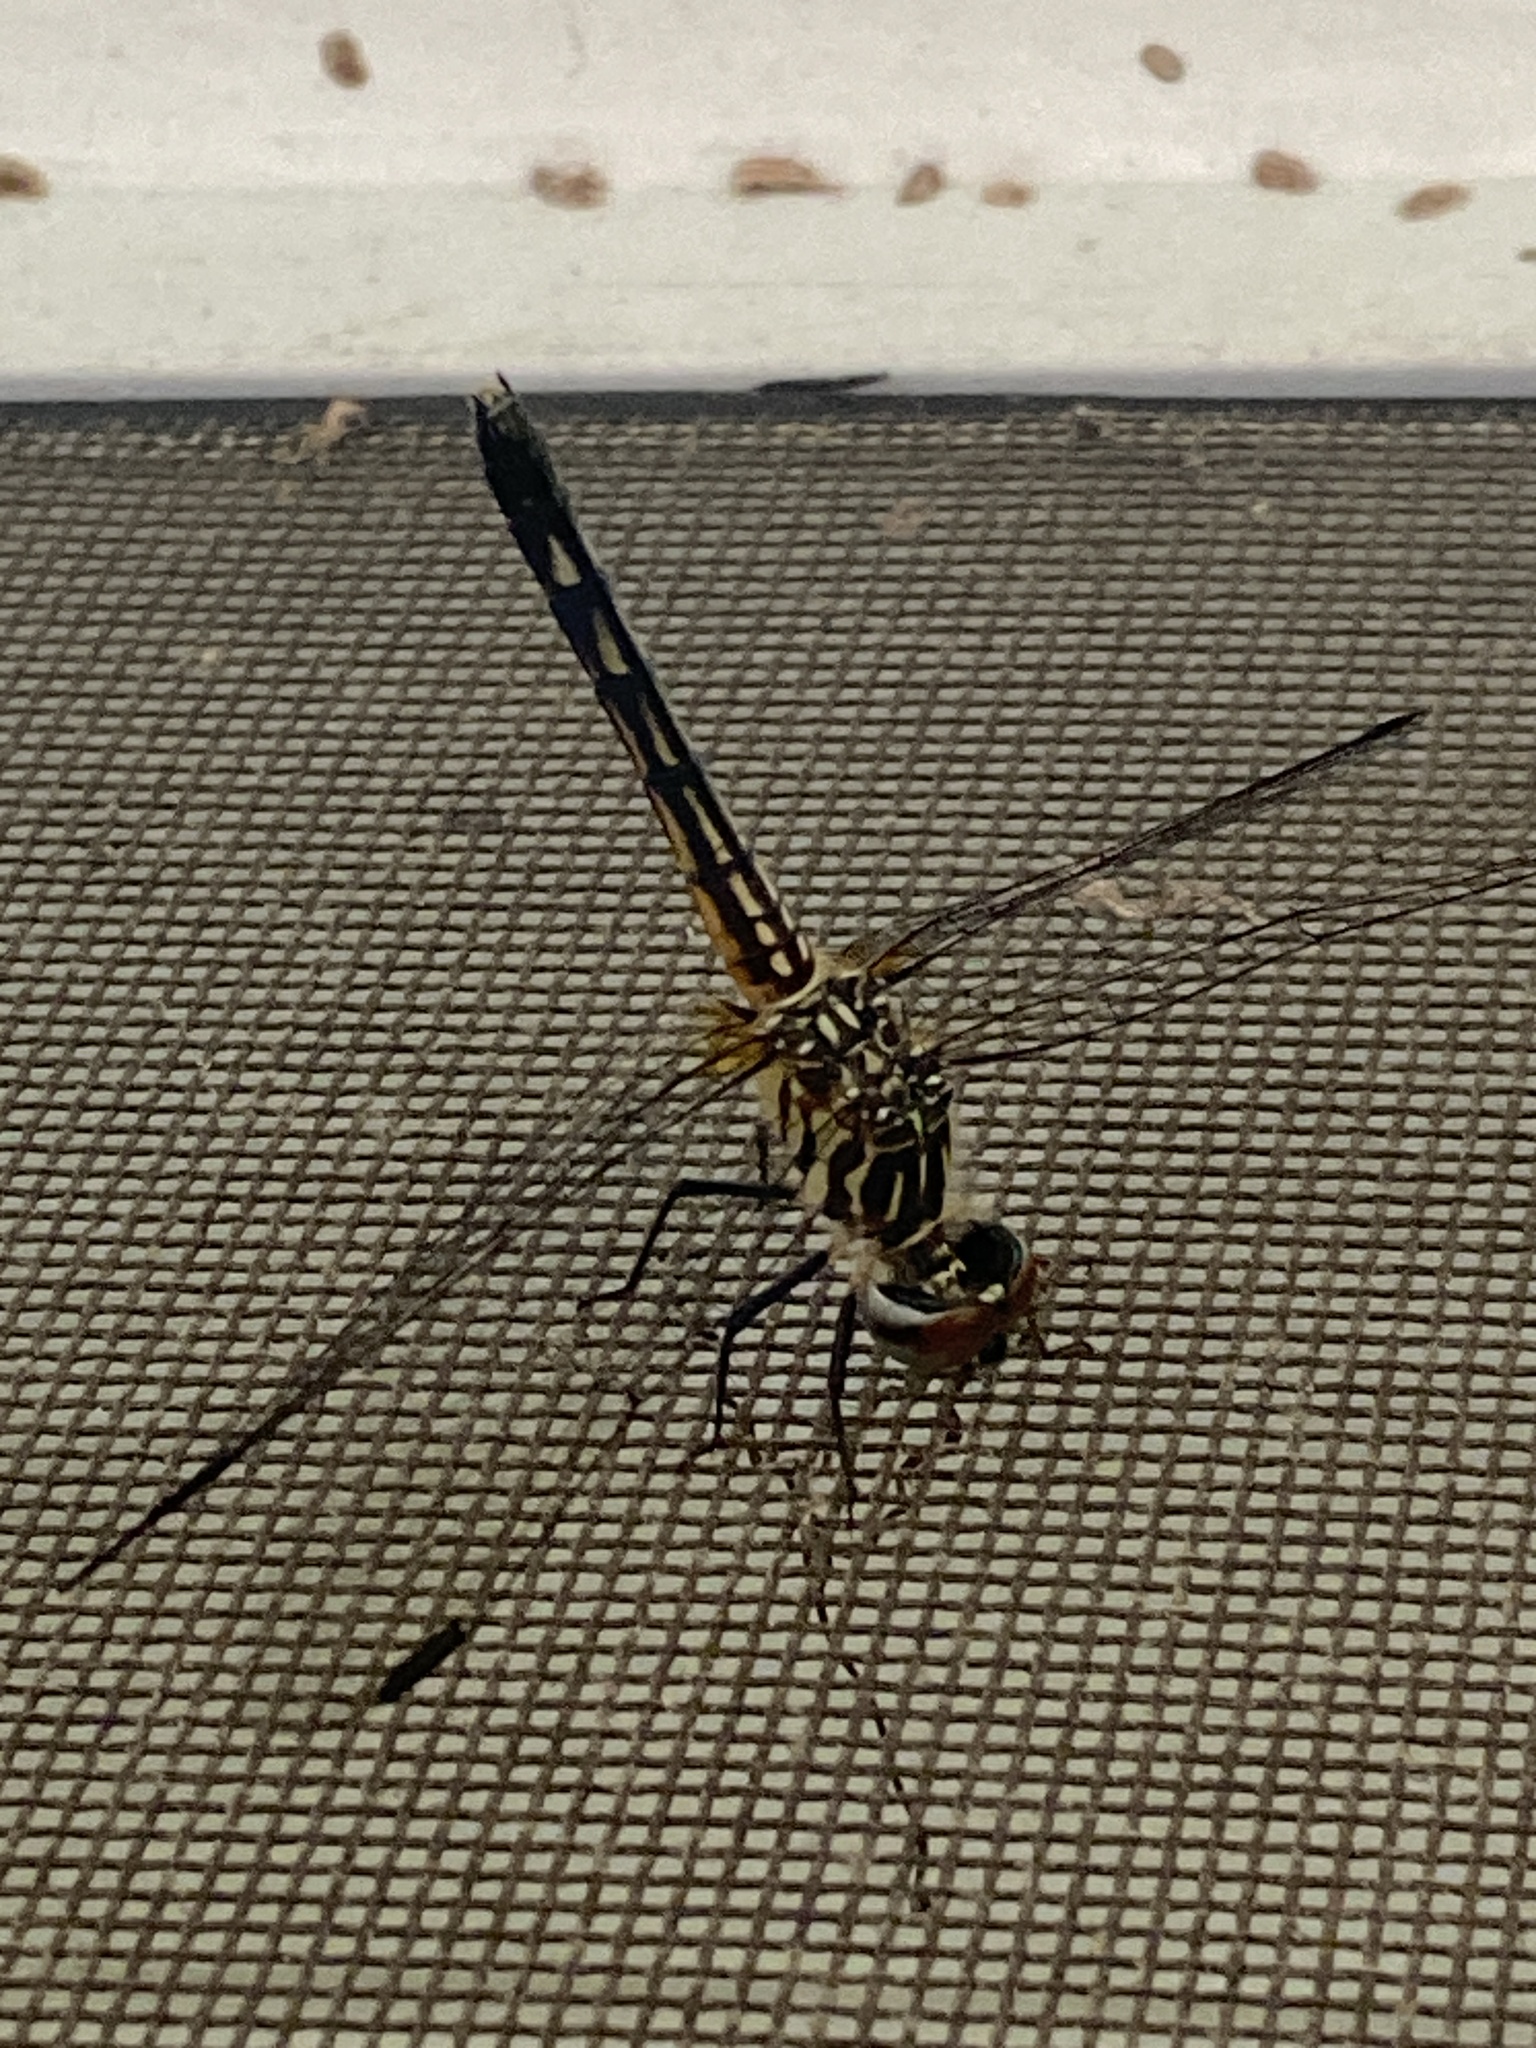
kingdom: Animalia
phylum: Arthropoda
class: Insecta
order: Odonata
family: Libellulidae
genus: Pachydiplax
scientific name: Pachydiplax longipennis
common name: Blue dasher
